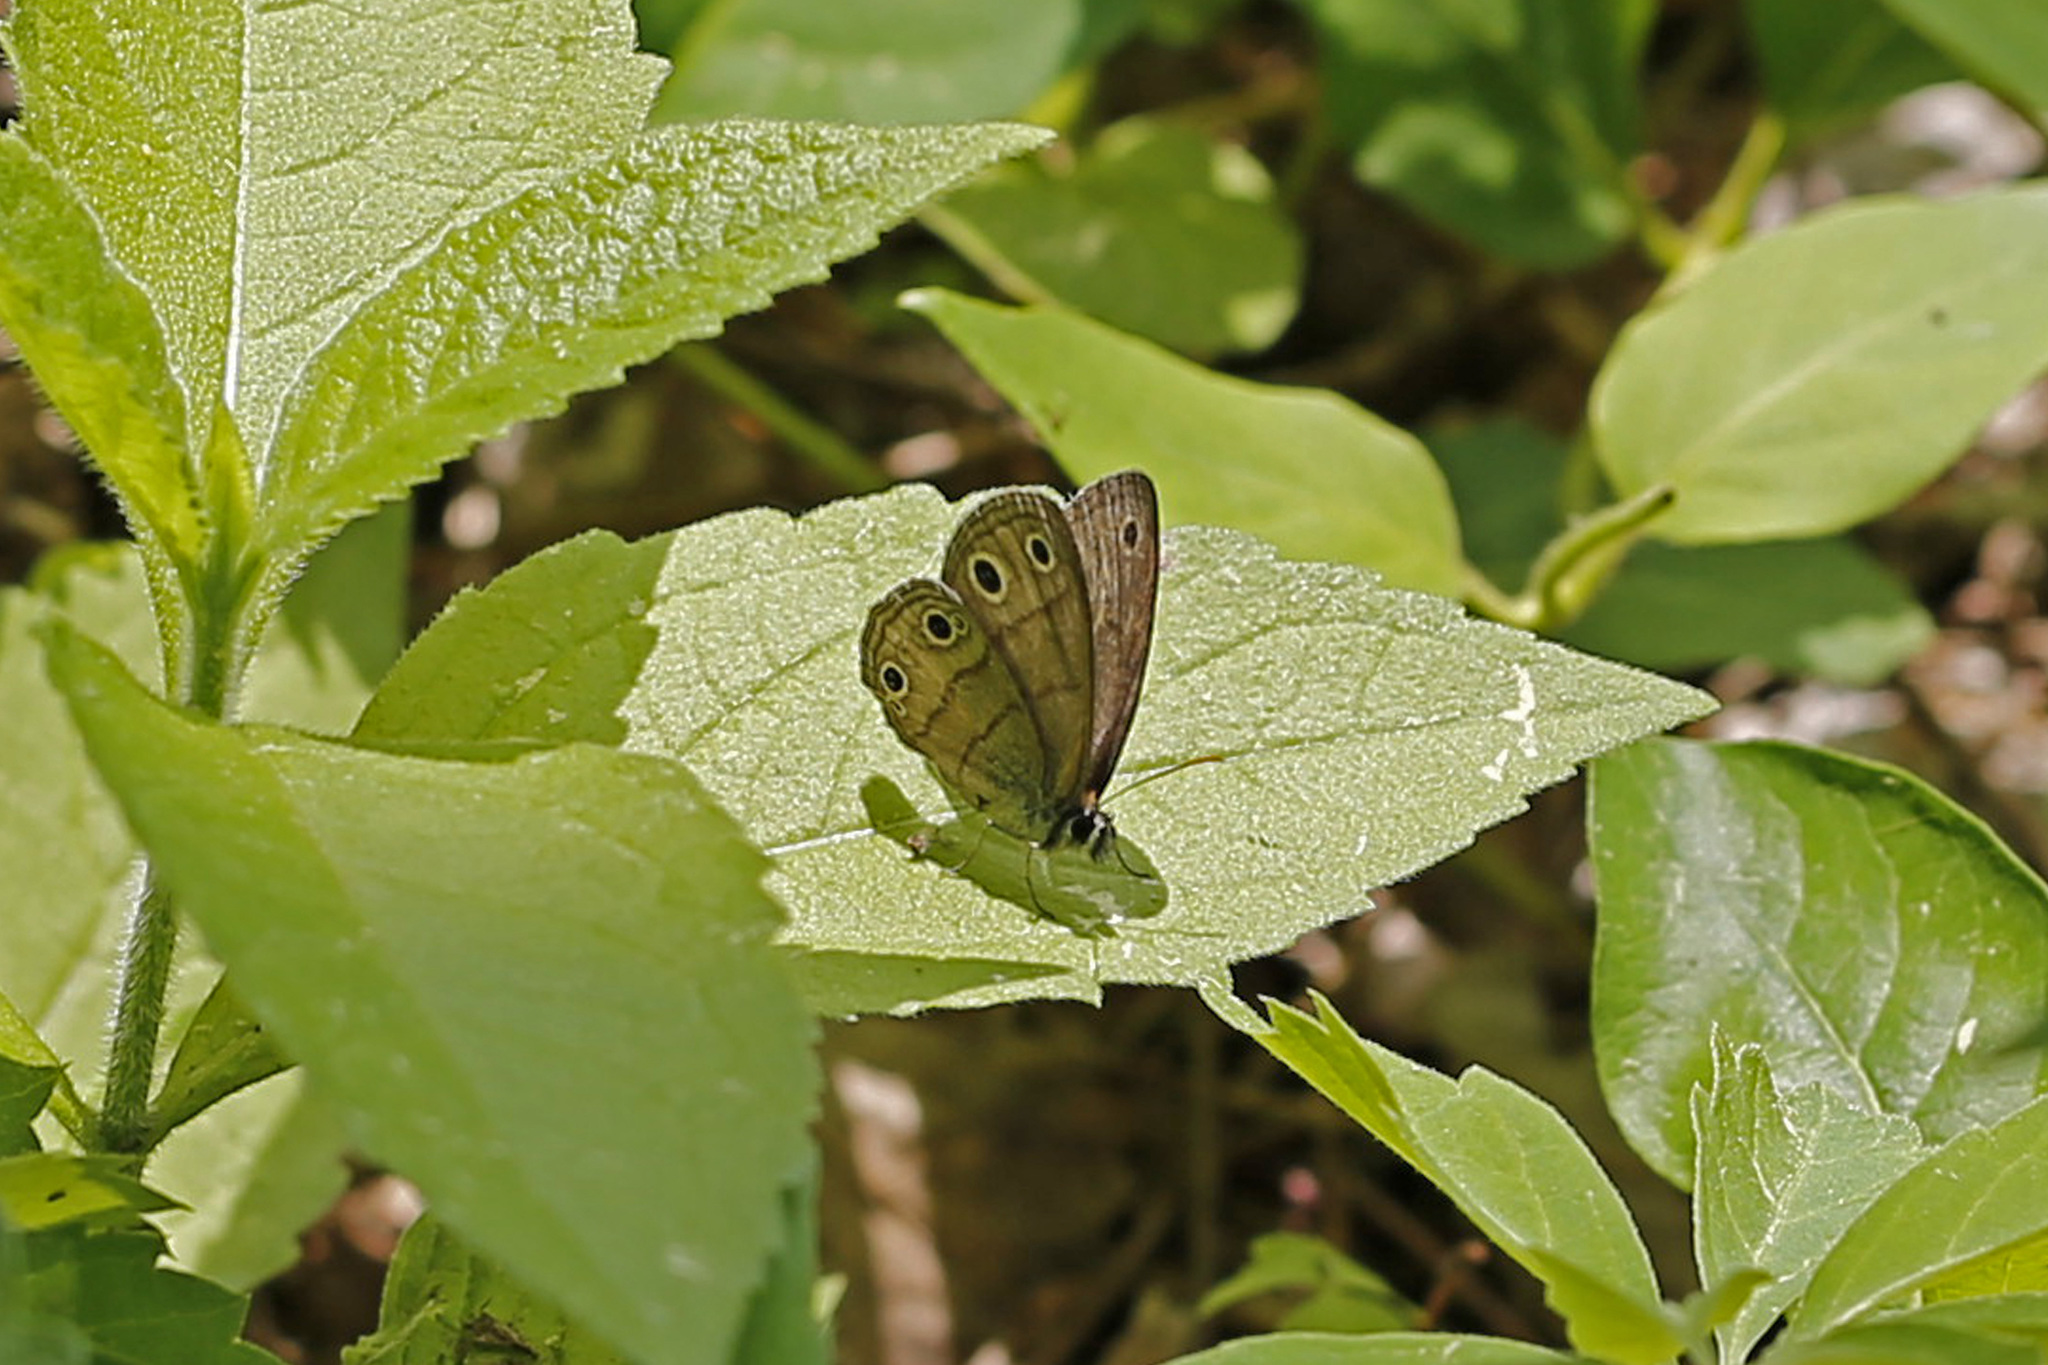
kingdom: Animalia
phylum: Arthropoda
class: Insecta
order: Lepidoptera
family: Nymphalidae
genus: Euptychia
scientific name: Euptychia cymela
